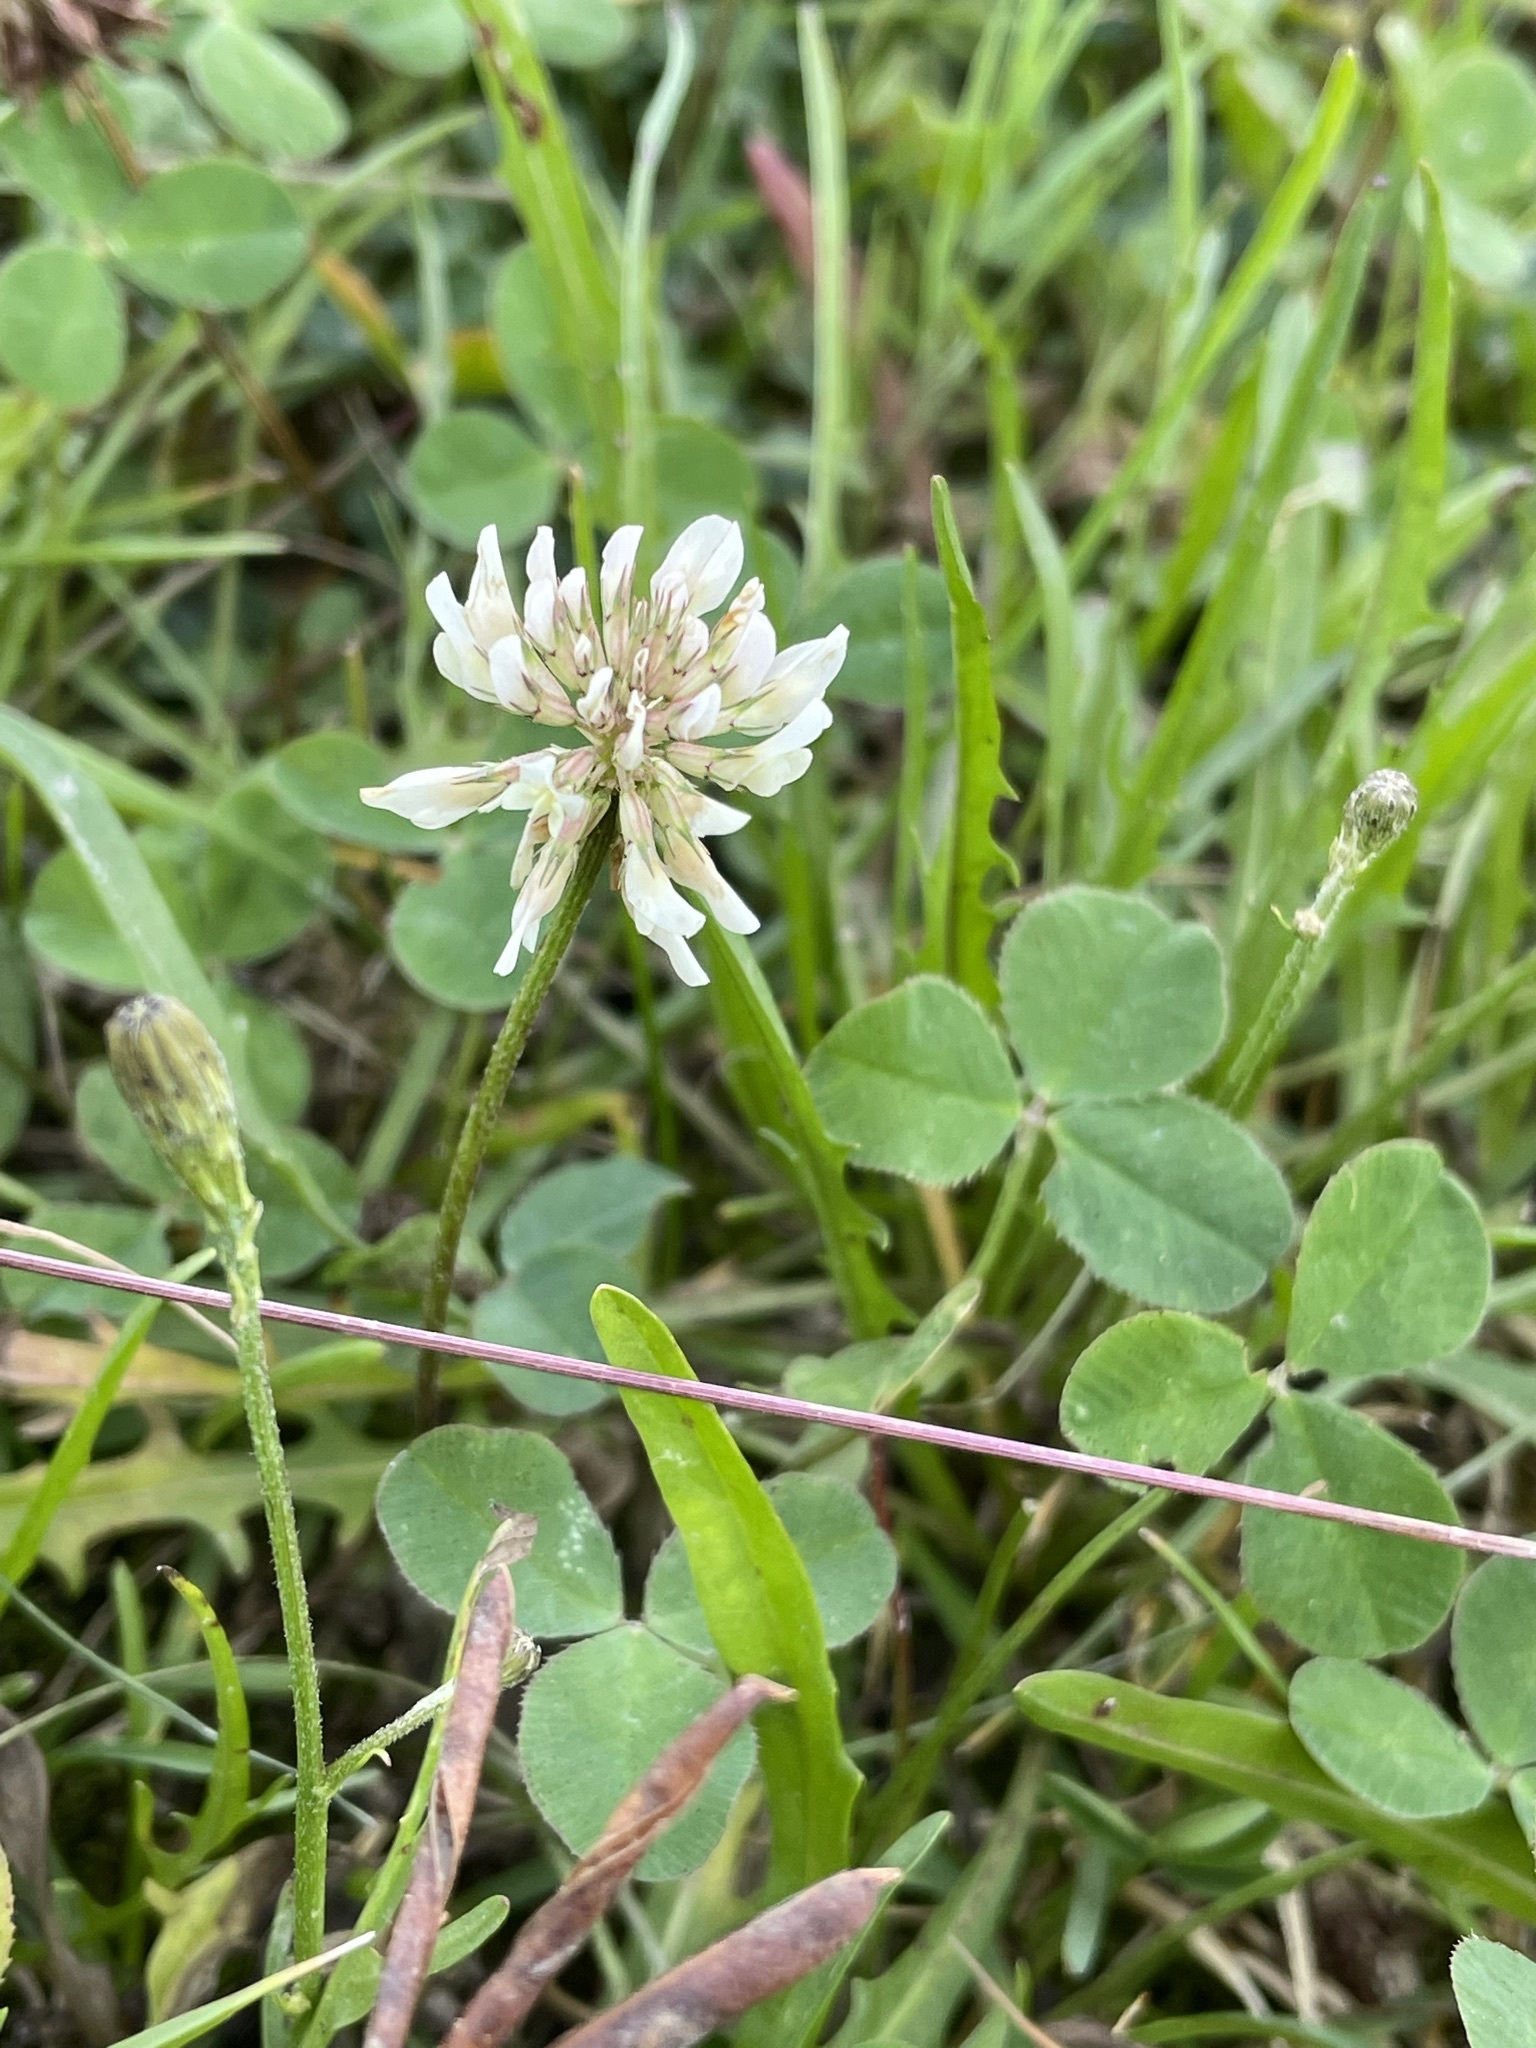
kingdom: Plantae
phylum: Tracheophyta
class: Magnoliopsida
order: Fabales
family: Fabaceae
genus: Trifolium
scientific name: Trifolium repens
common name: White clover
